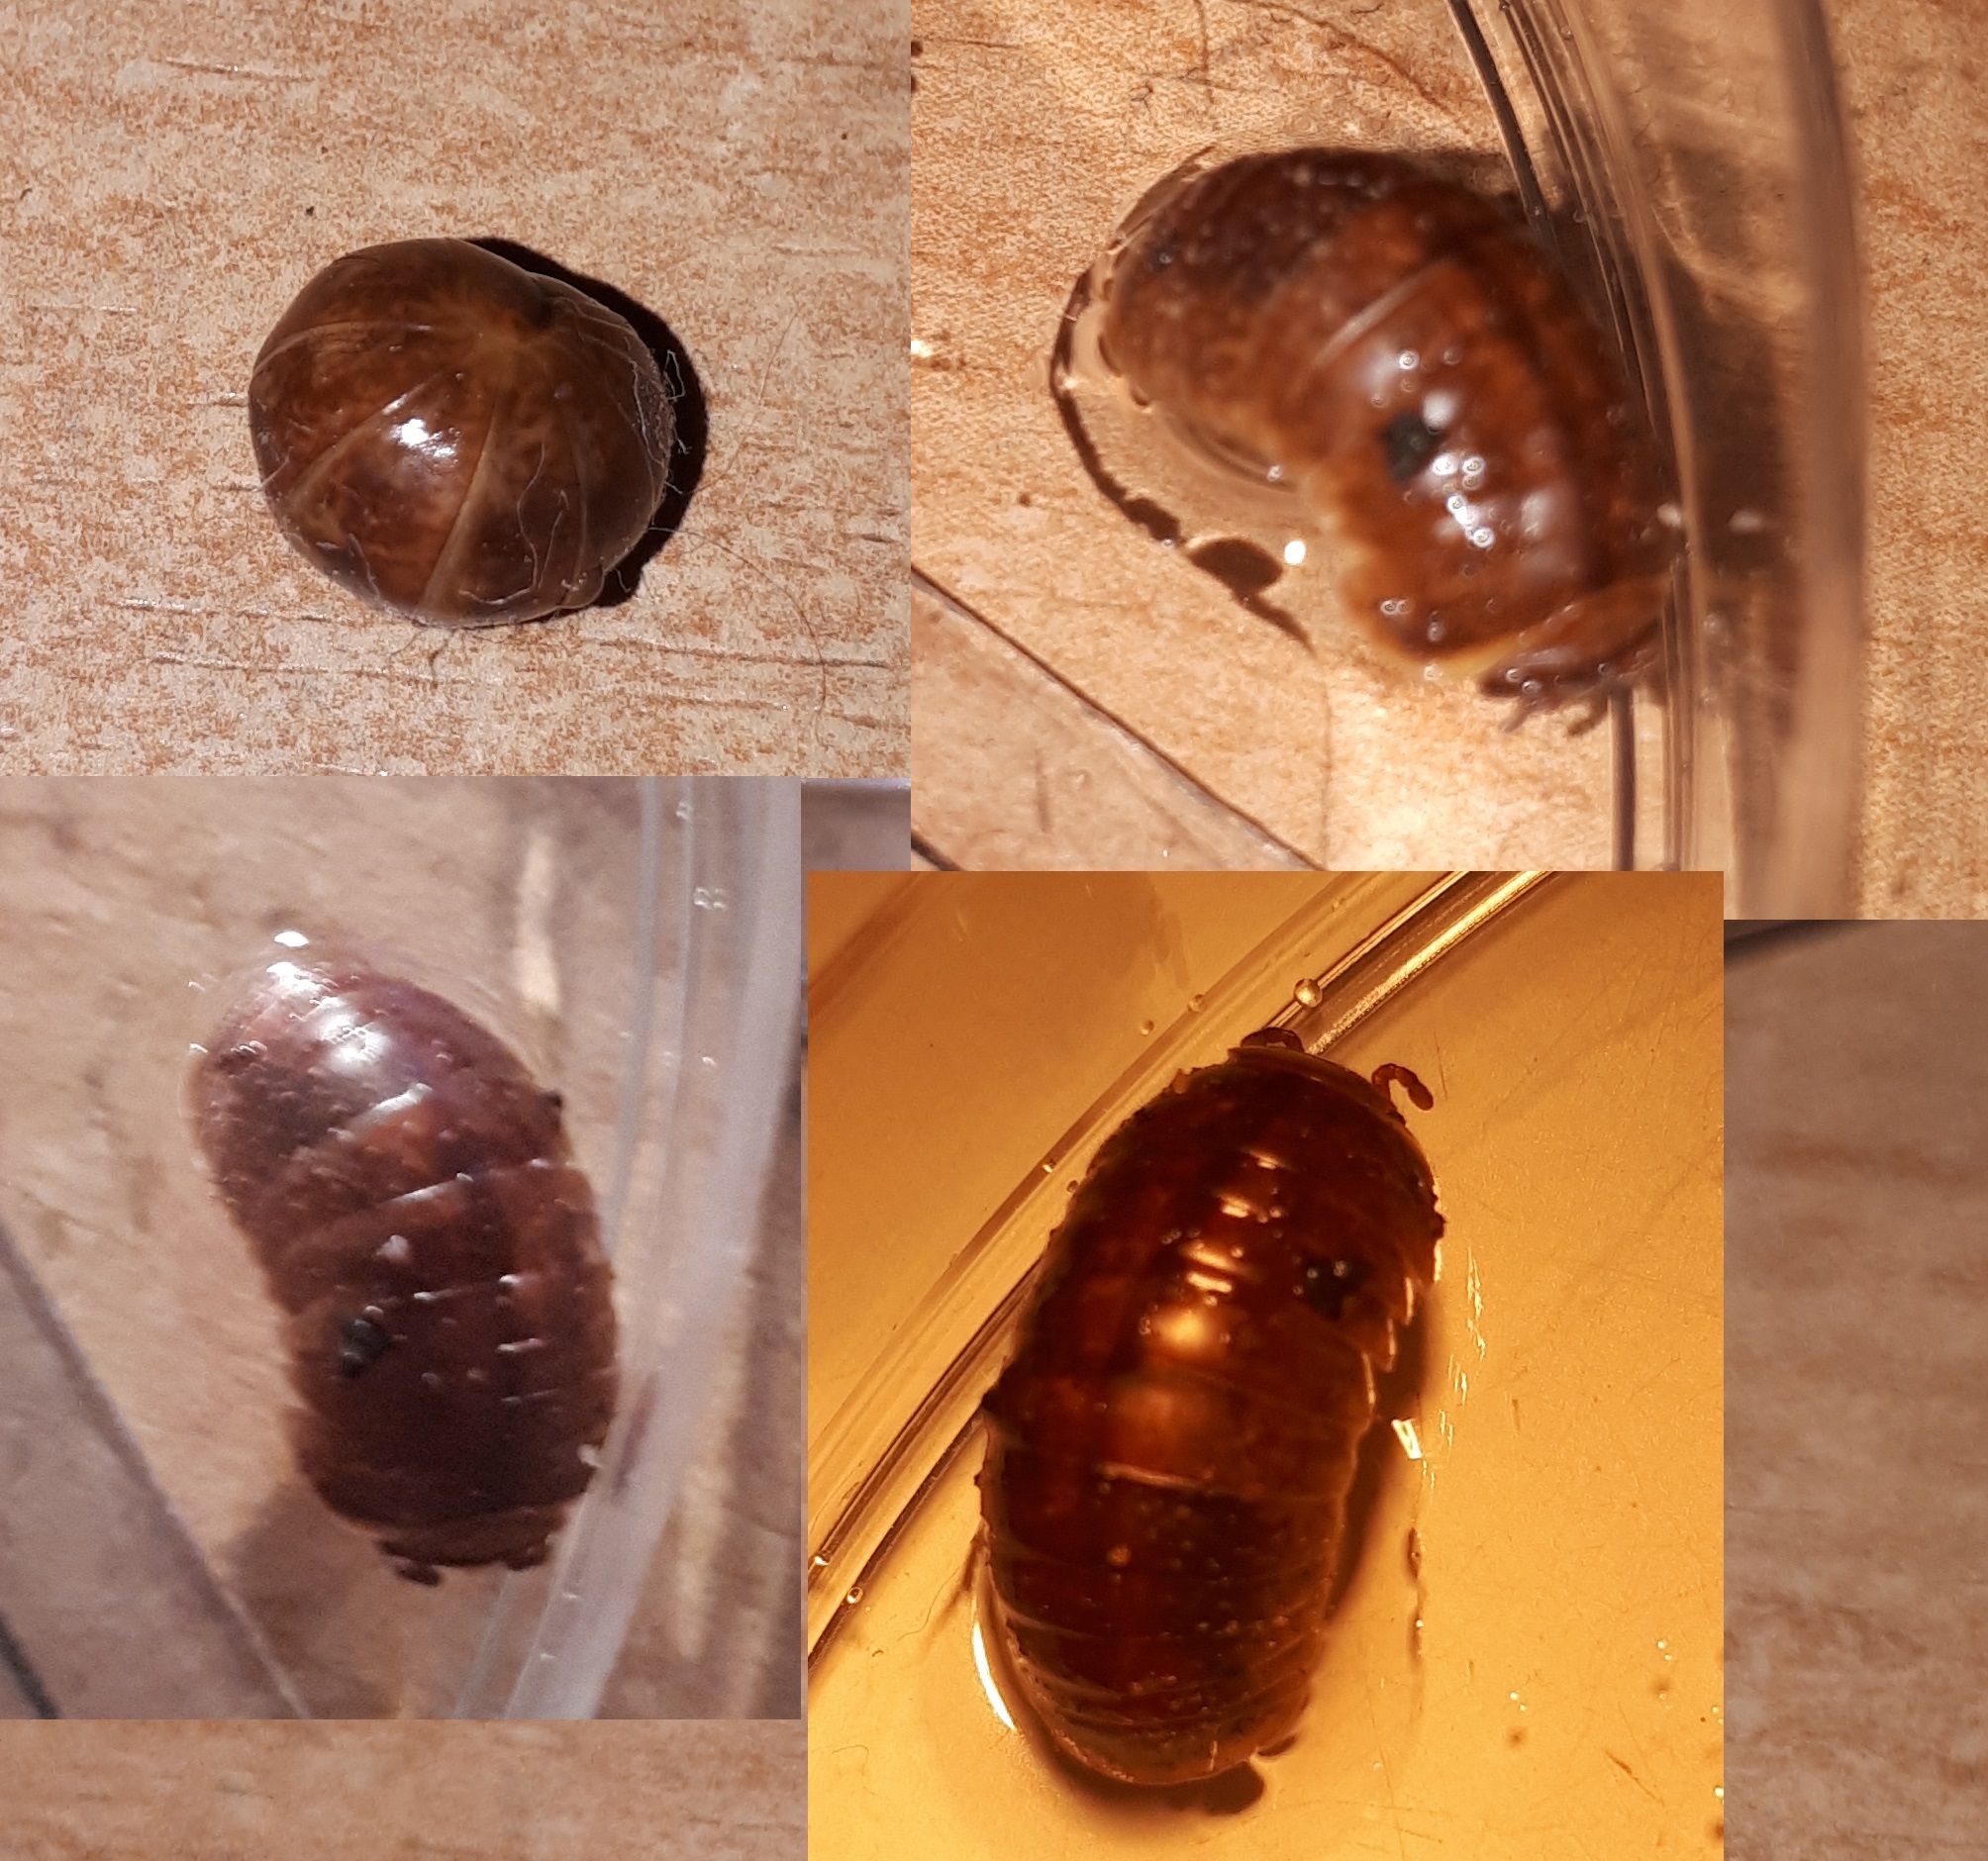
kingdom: Animalia
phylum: Arthropoda
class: Diplopoda
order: Glomerida
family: Glomeridae
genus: Glomeris
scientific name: Glomeris klugii
